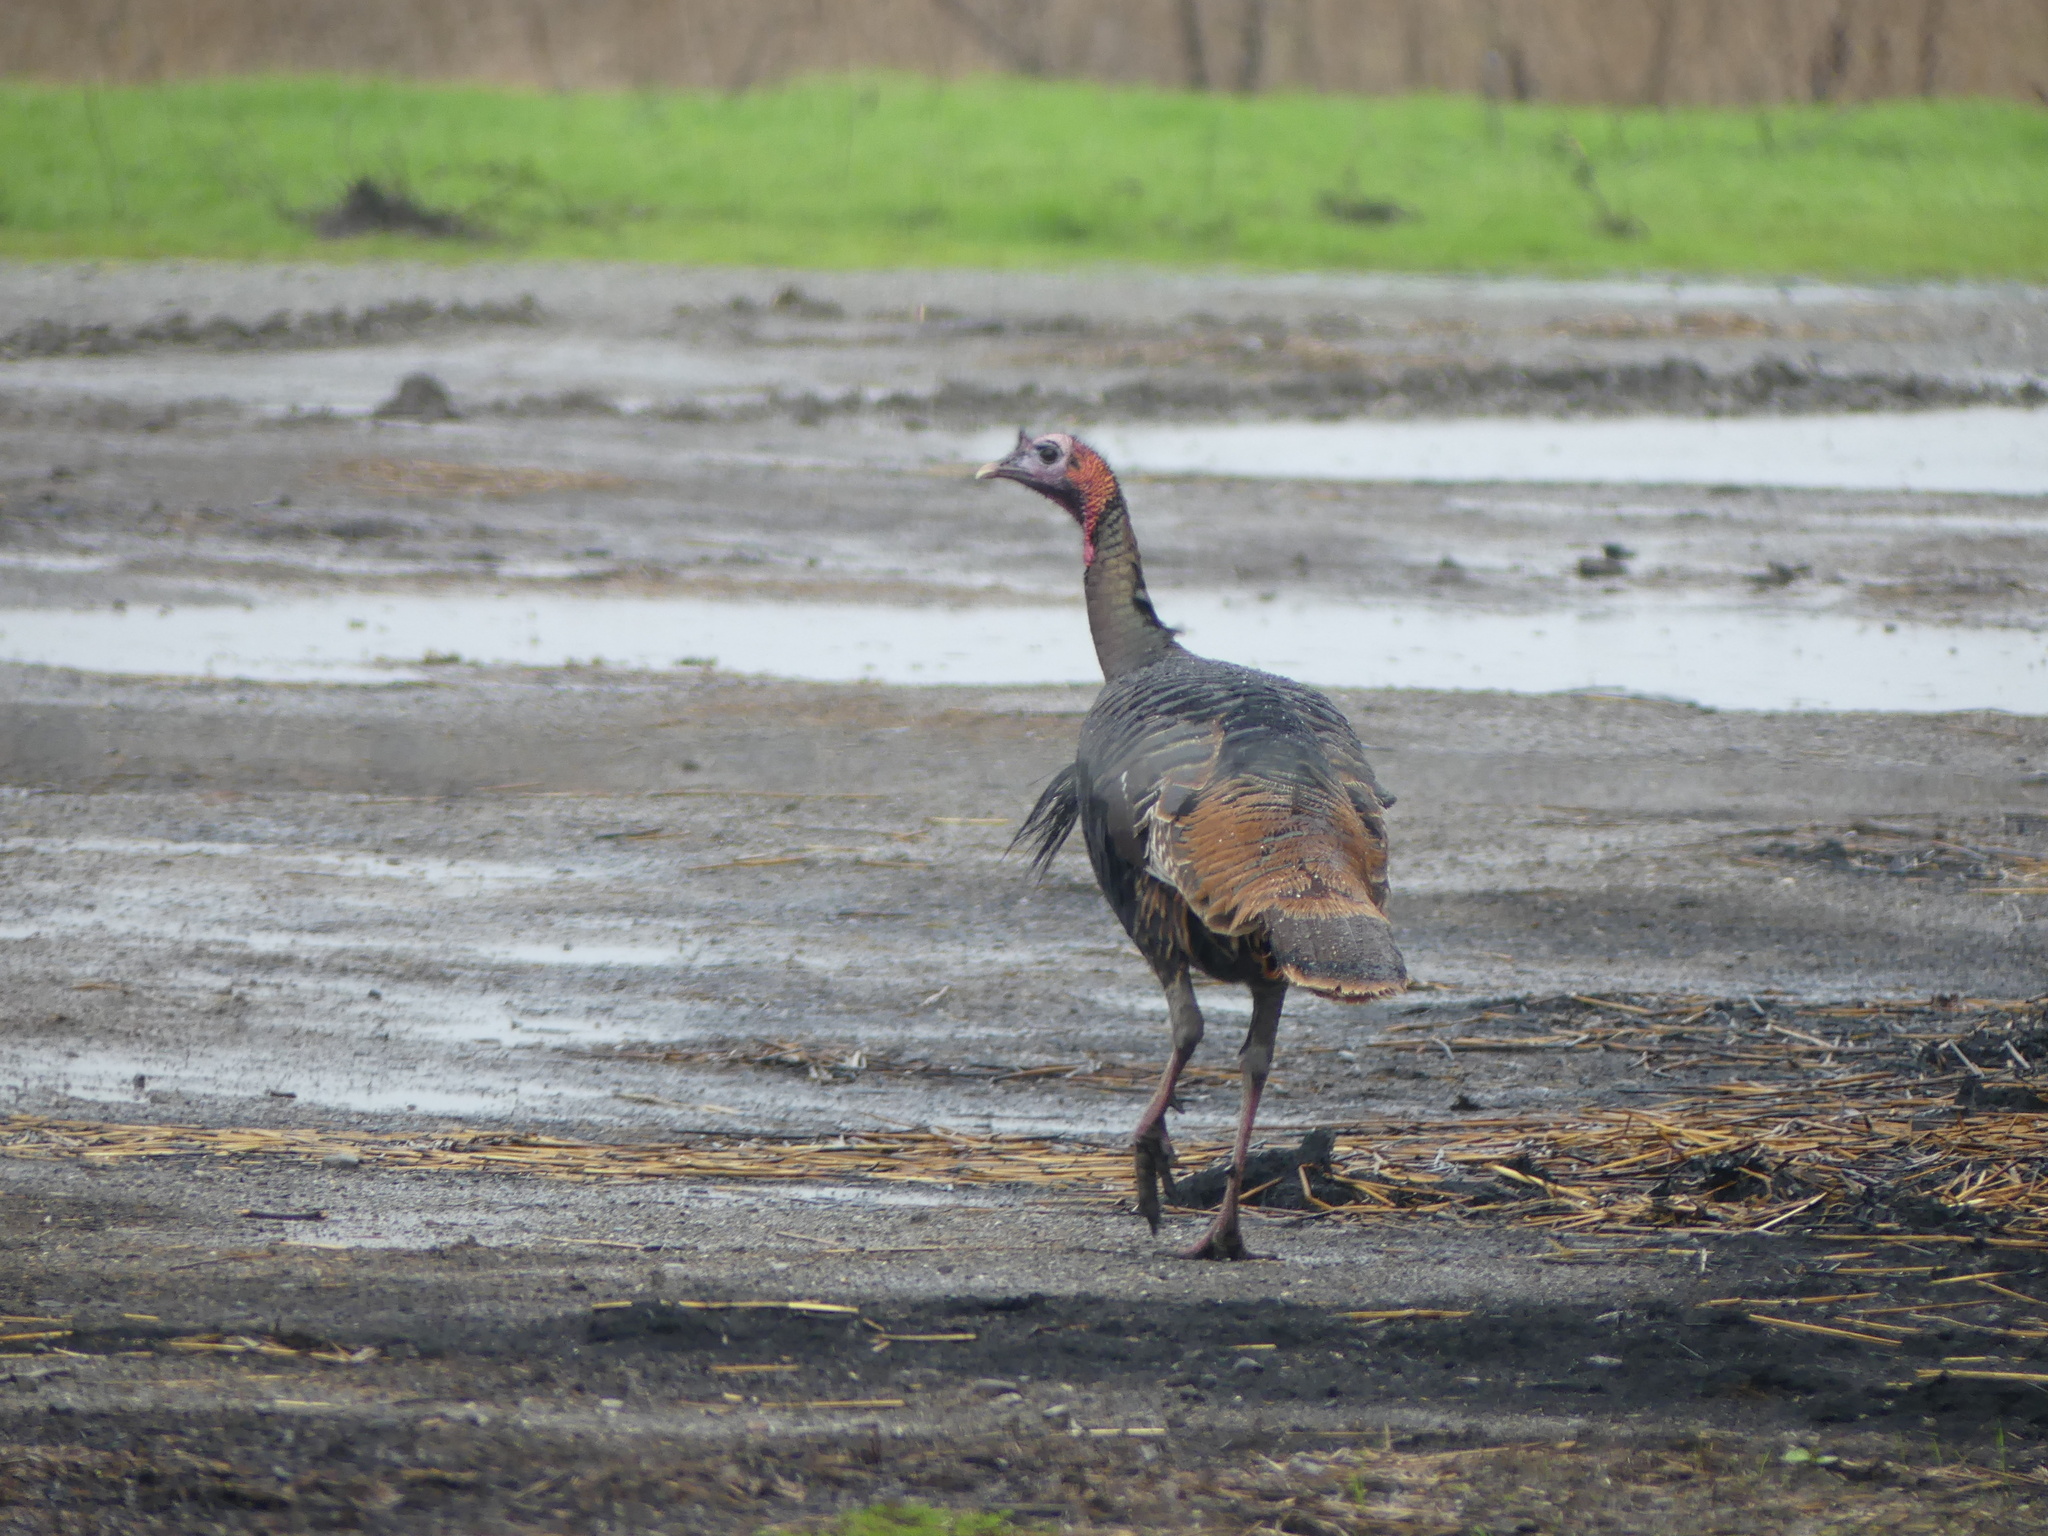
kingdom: Animalia
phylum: Chordata
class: Aves
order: Galliformes
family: Phasianidae
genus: Meleagris
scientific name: Meleagris gallopavo
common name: Wild turkey
